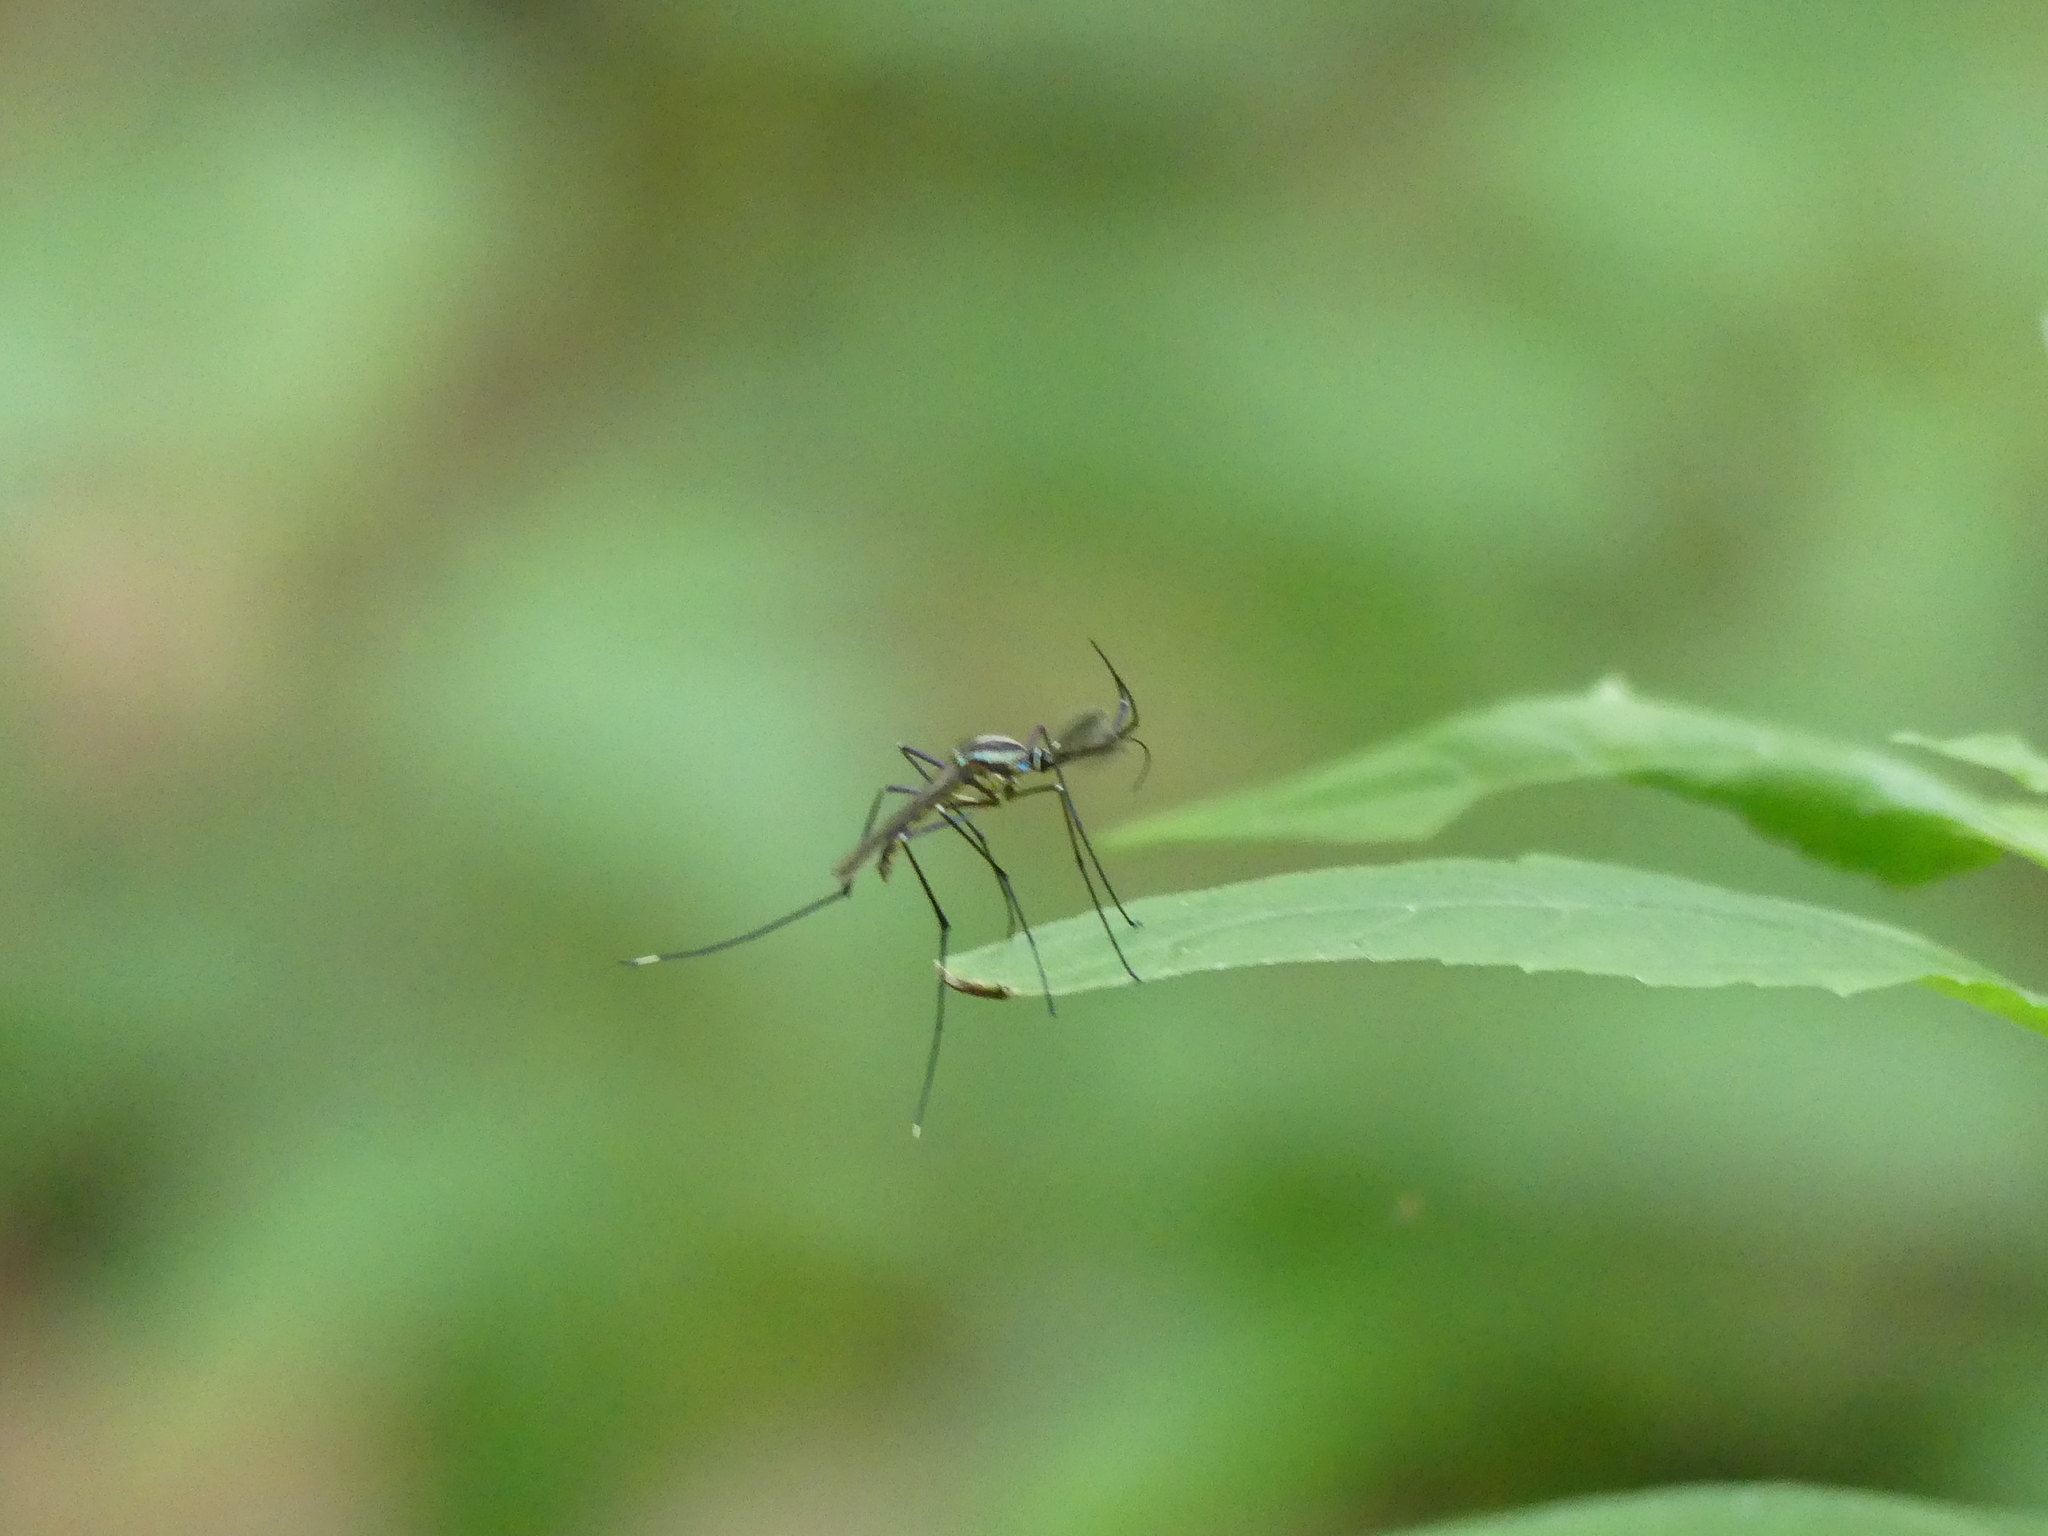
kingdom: Animalia
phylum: Arthropoda
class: Insecta
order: Diptera
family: Culicidae
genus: Toxorhynchites
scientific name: Toxorhynchites rutilus
